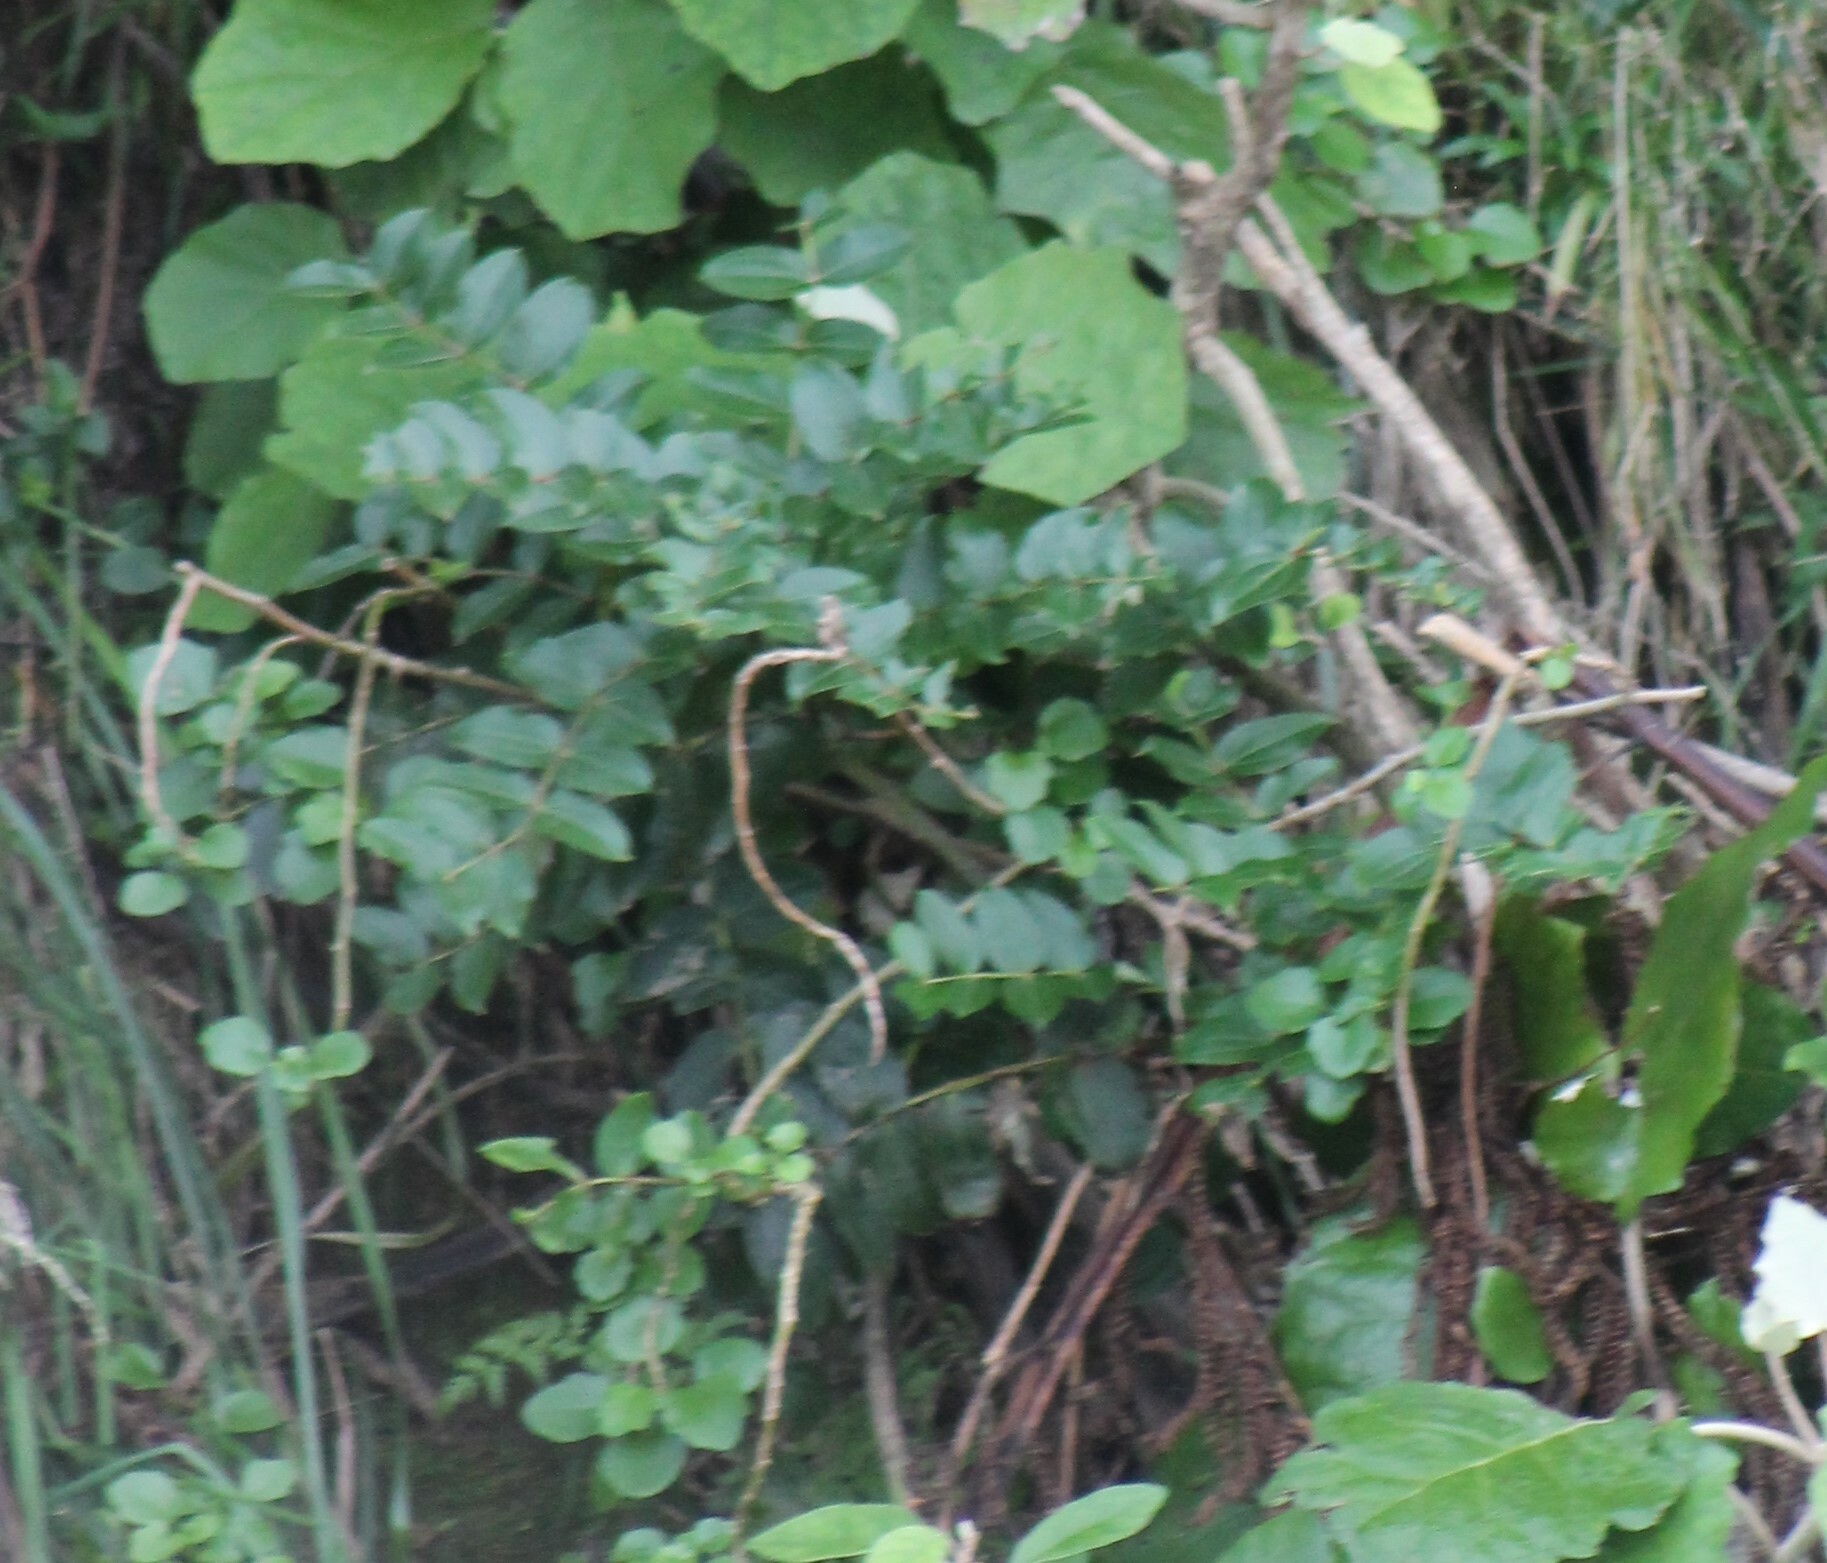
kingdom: Plantae
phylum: Tracheophyta
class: Magnoliopsida
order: Cucurbitales
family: Coriariaceae
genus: Coriaria
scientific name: Coriaria arborea
